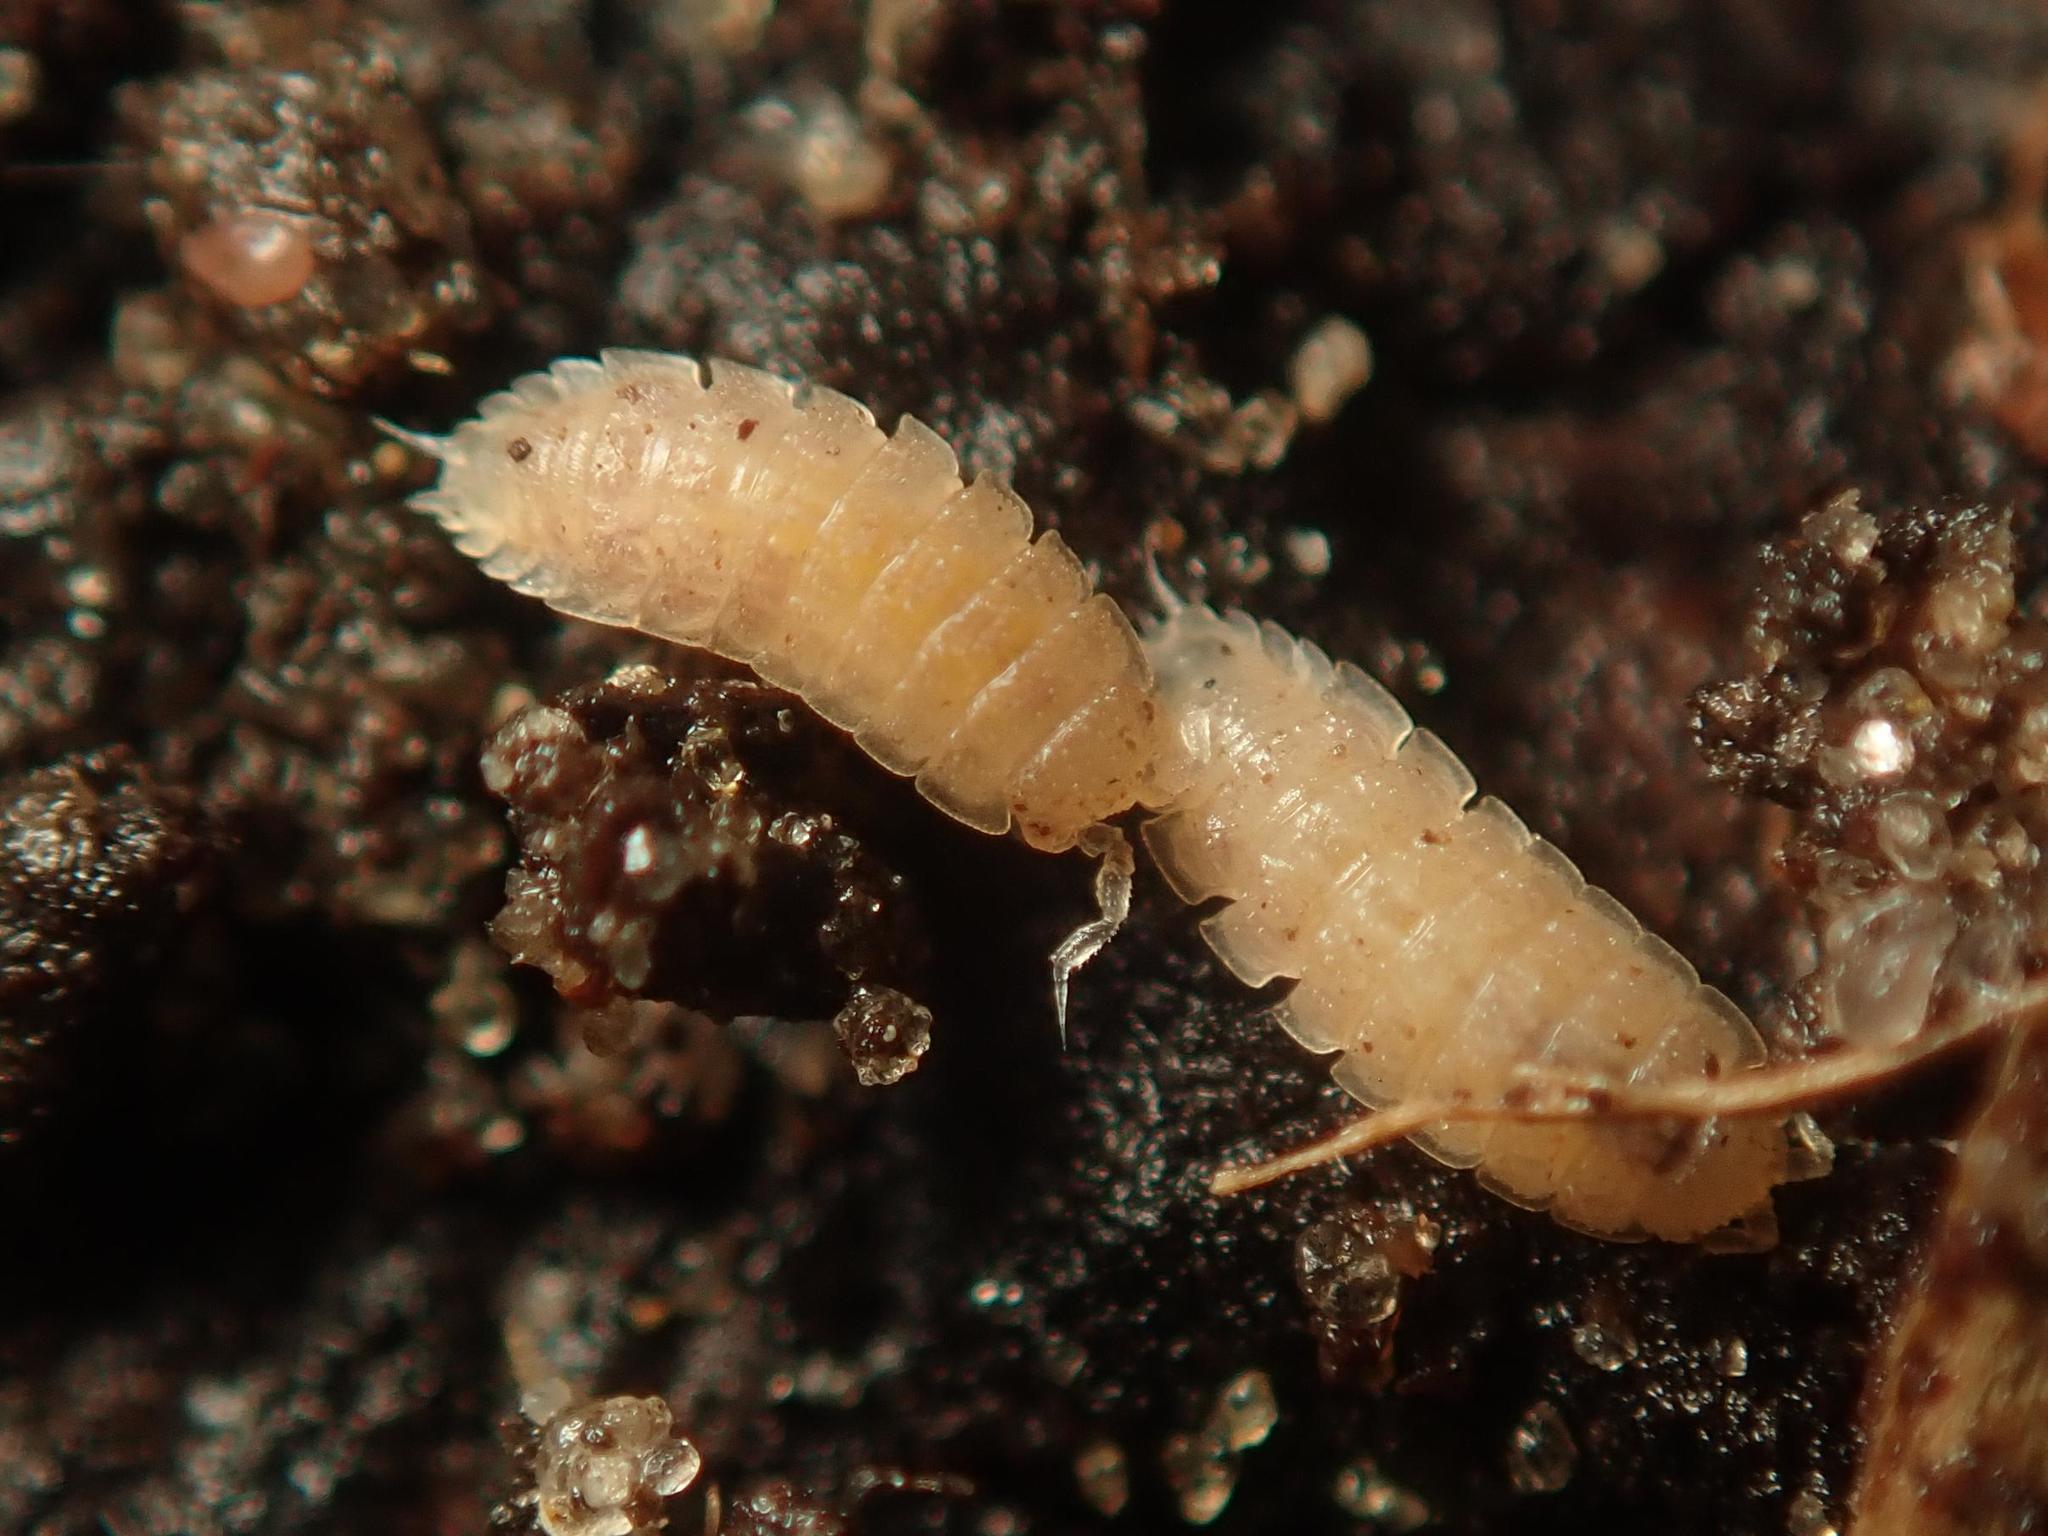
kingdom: Animalia
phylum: Arthropoda
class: Malacostraca
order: Isopoda
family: Trichoniscidae
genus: Haplophthalmus
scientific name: Haplophthalmus danicus
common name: Pillbug
